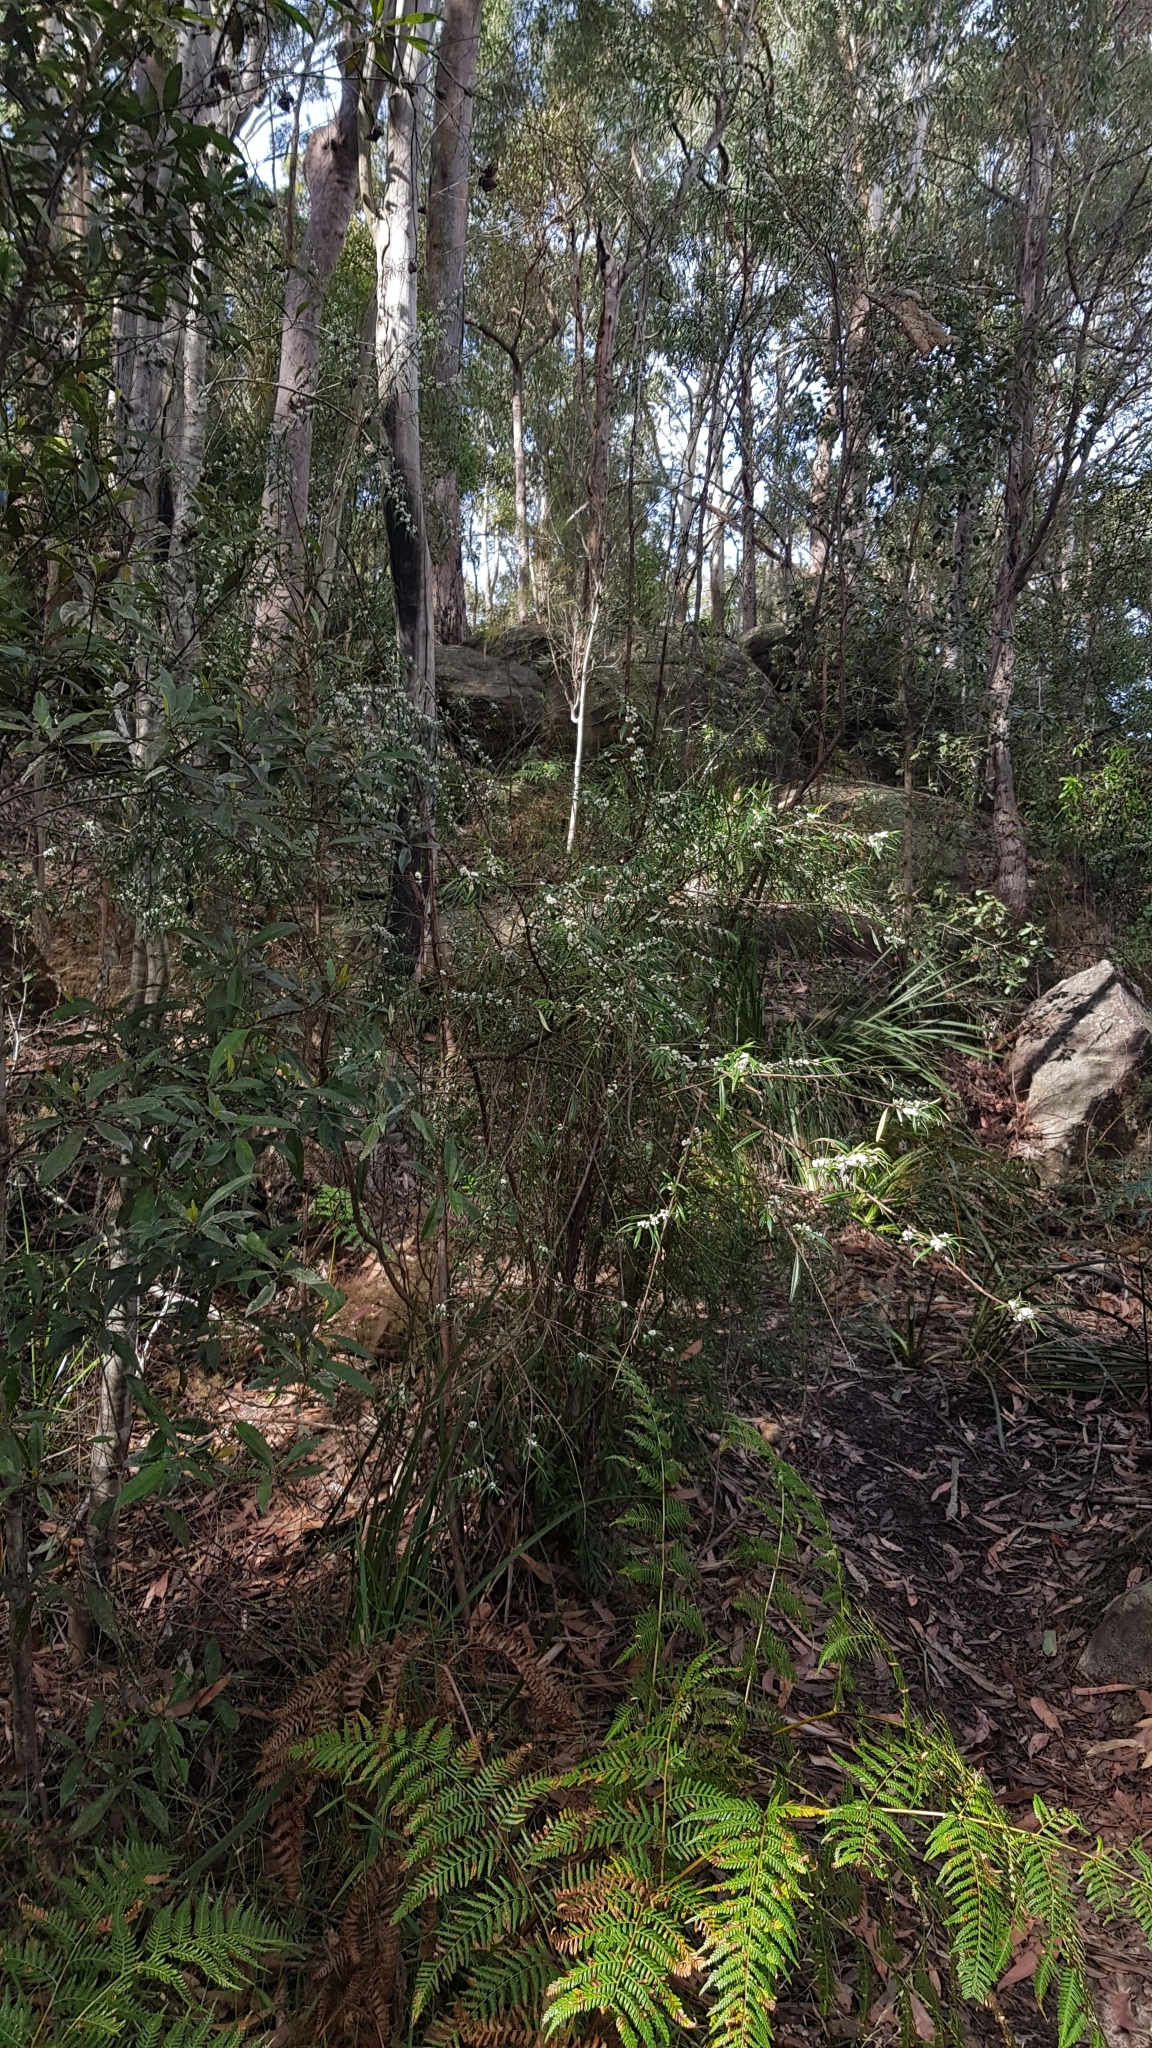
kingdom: Plantae
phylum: Tracheophyta
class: Magnoliopsida
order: Gentianales
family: Loganiaceae
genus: Logania
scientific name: Logania albiflora
